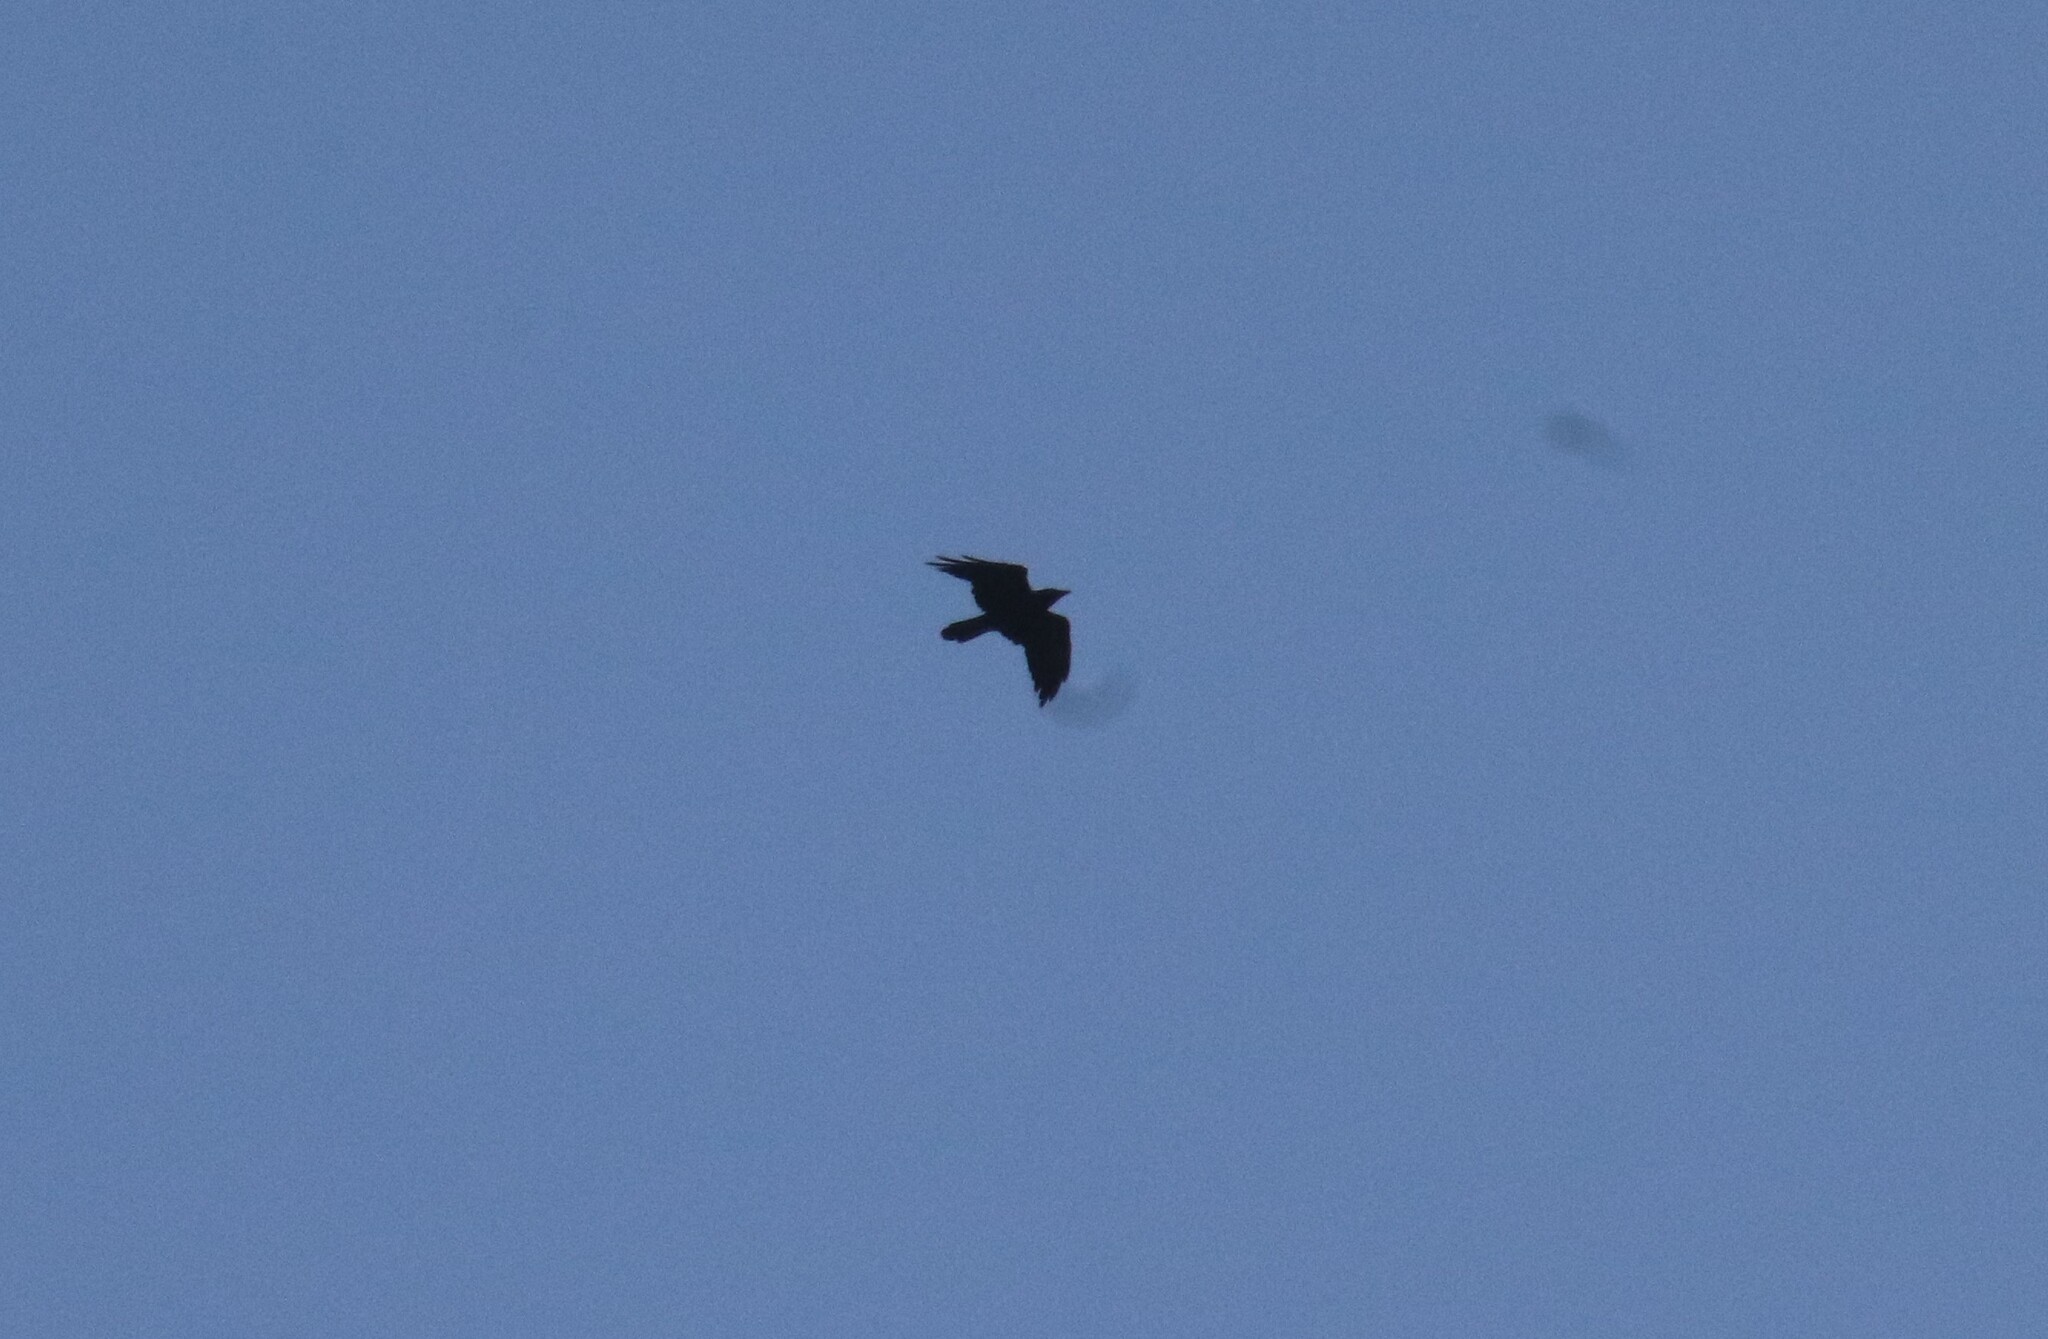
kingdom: Animalia
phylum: Chordata
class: Aves
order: Passeriformes
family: Corvidae
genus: Corvus
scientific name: Corvus corax
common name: Common raven
